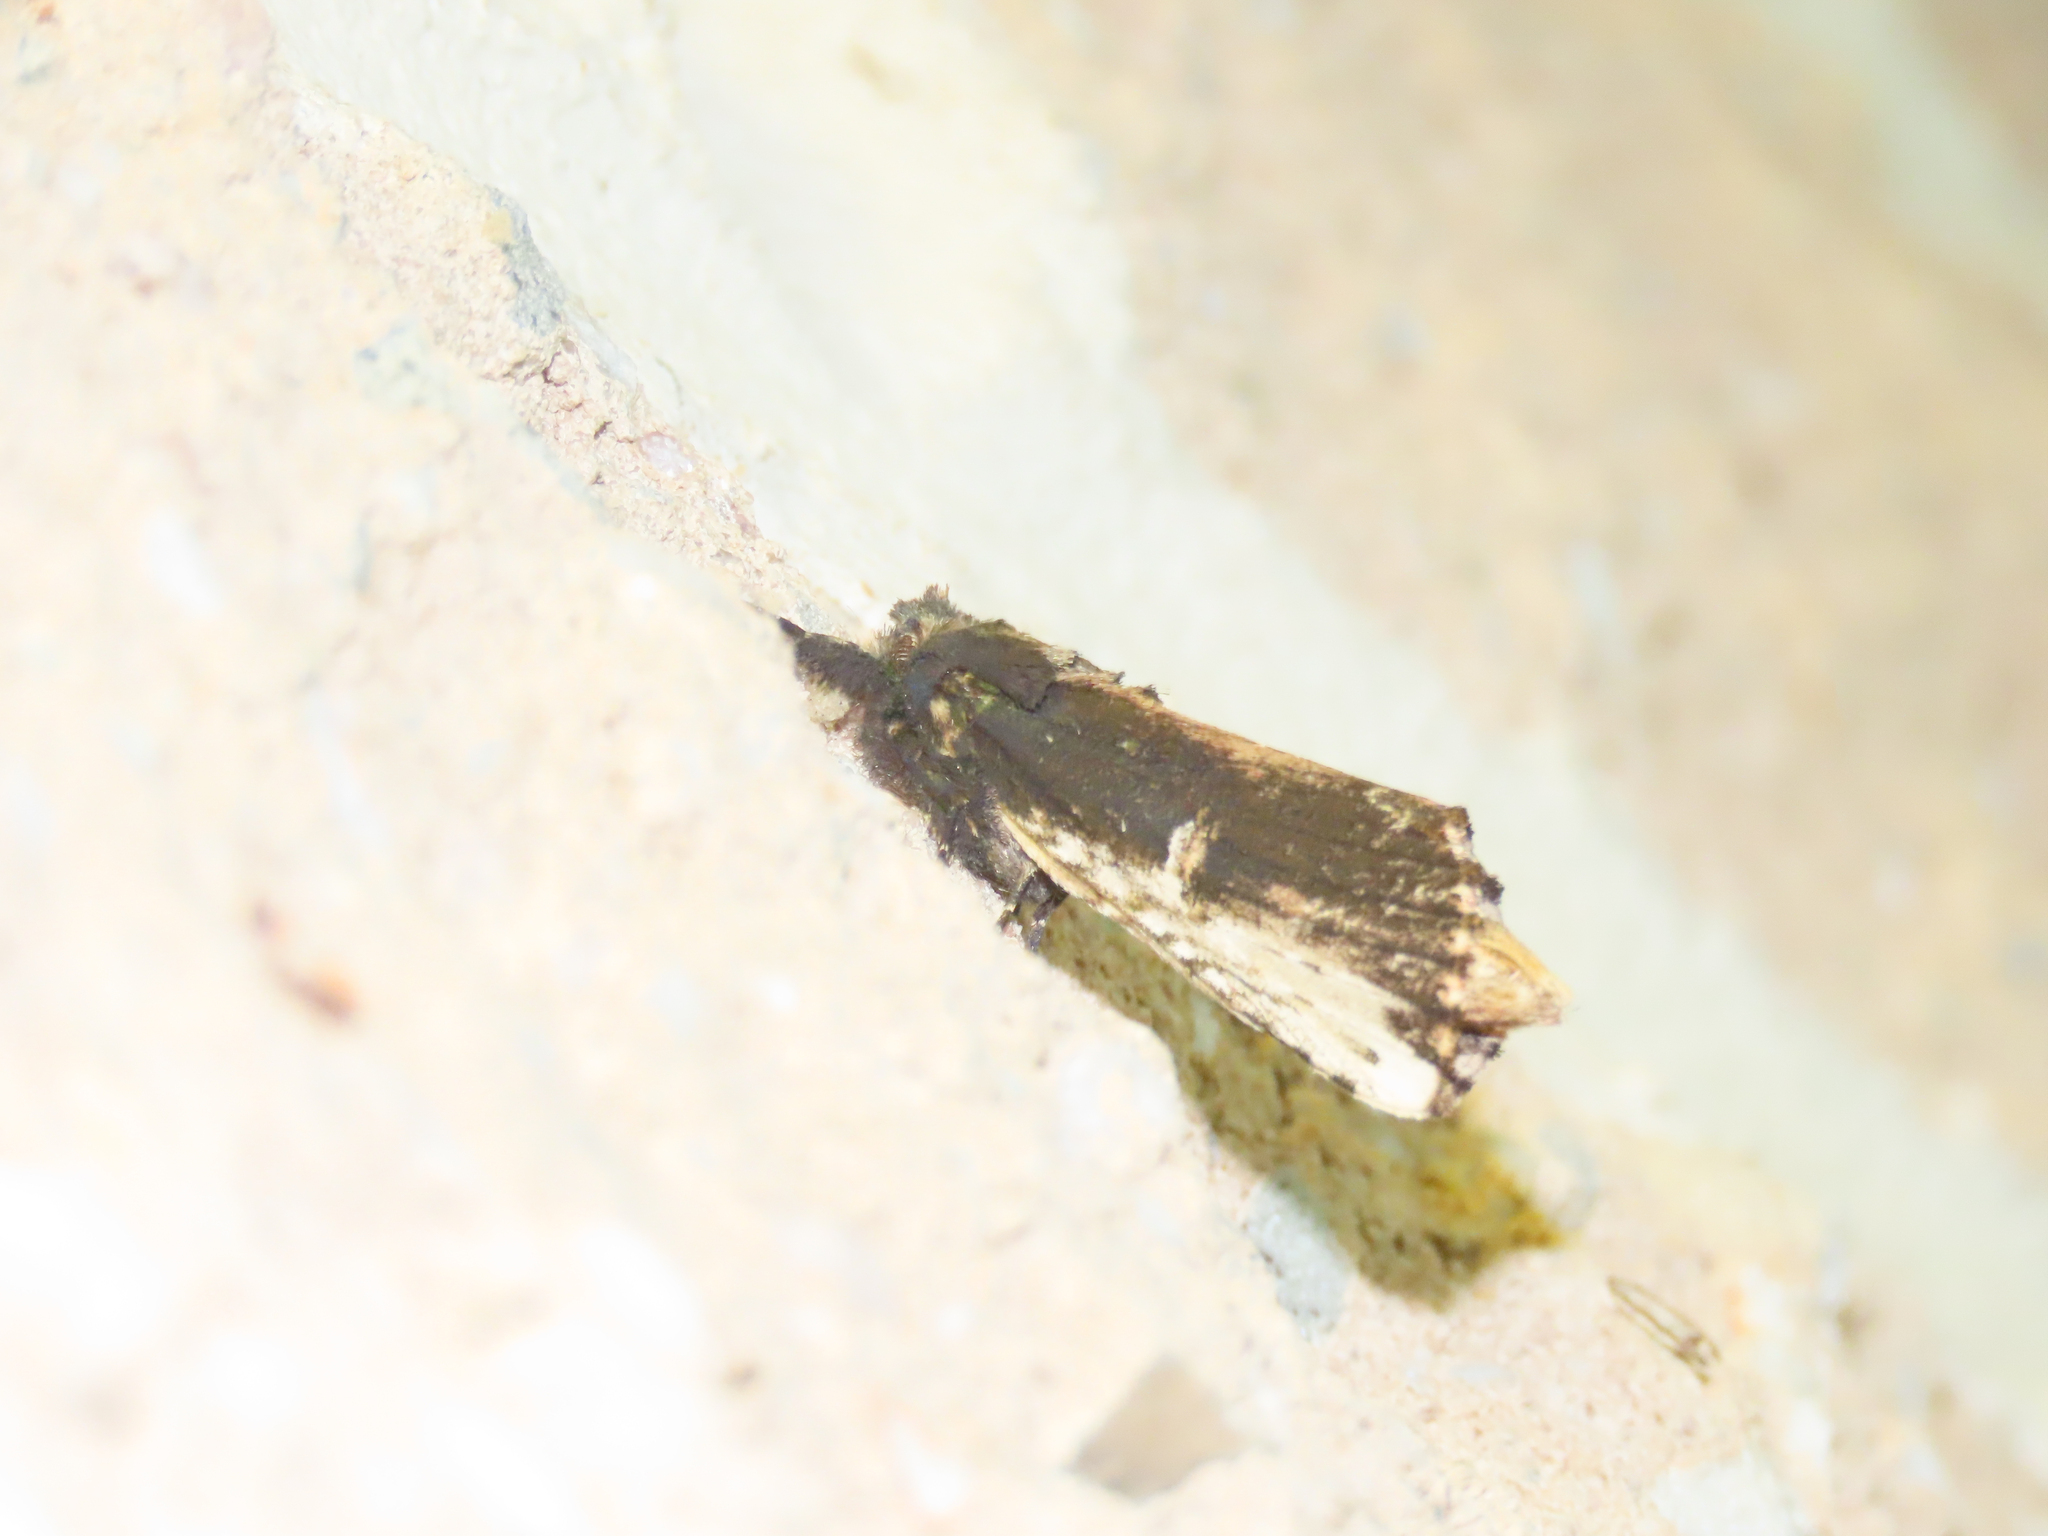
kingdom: Animalia
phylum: Arthropoda
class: Insecta
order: Lepidoptera
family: Notodontidae
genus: Schizura
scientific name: Schizura ipomaeae
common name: Morning-glory prominent
